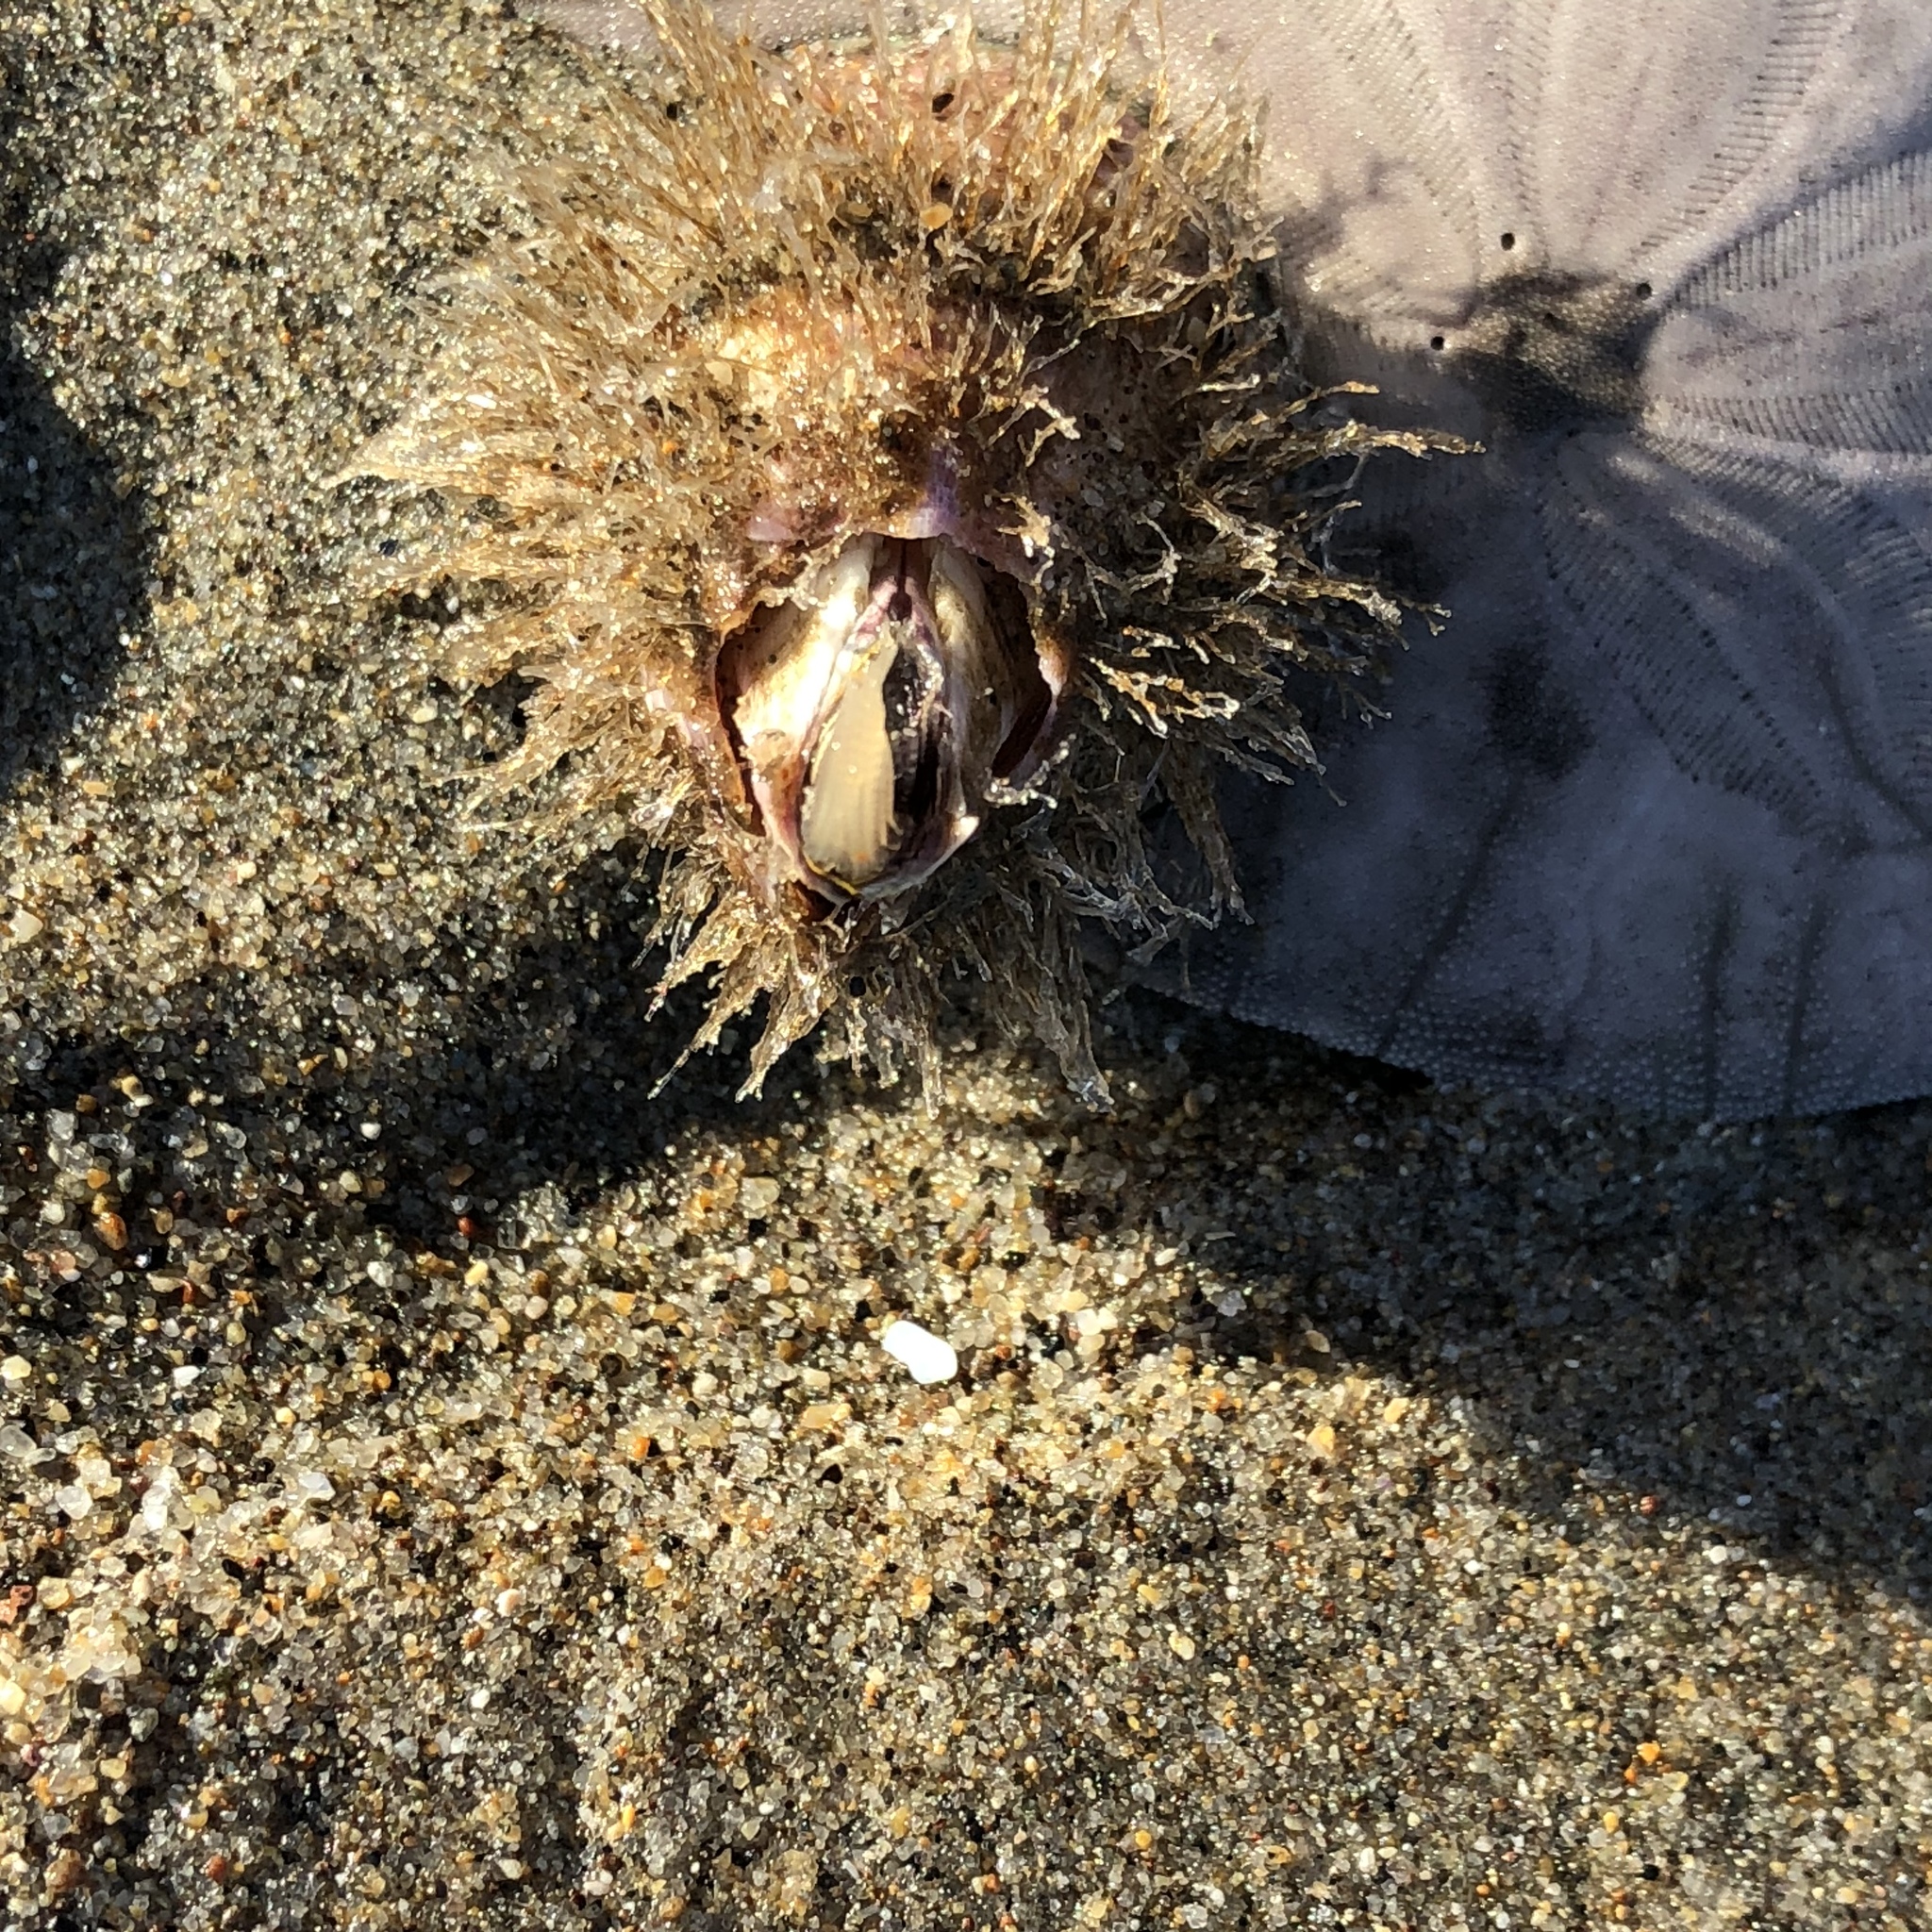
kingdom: Animalia
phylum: Arthropoda
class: Maxillopoda
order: Sessilia
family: Balanidae
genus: Paraconcavus
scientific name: Paraconcavus pacificus
